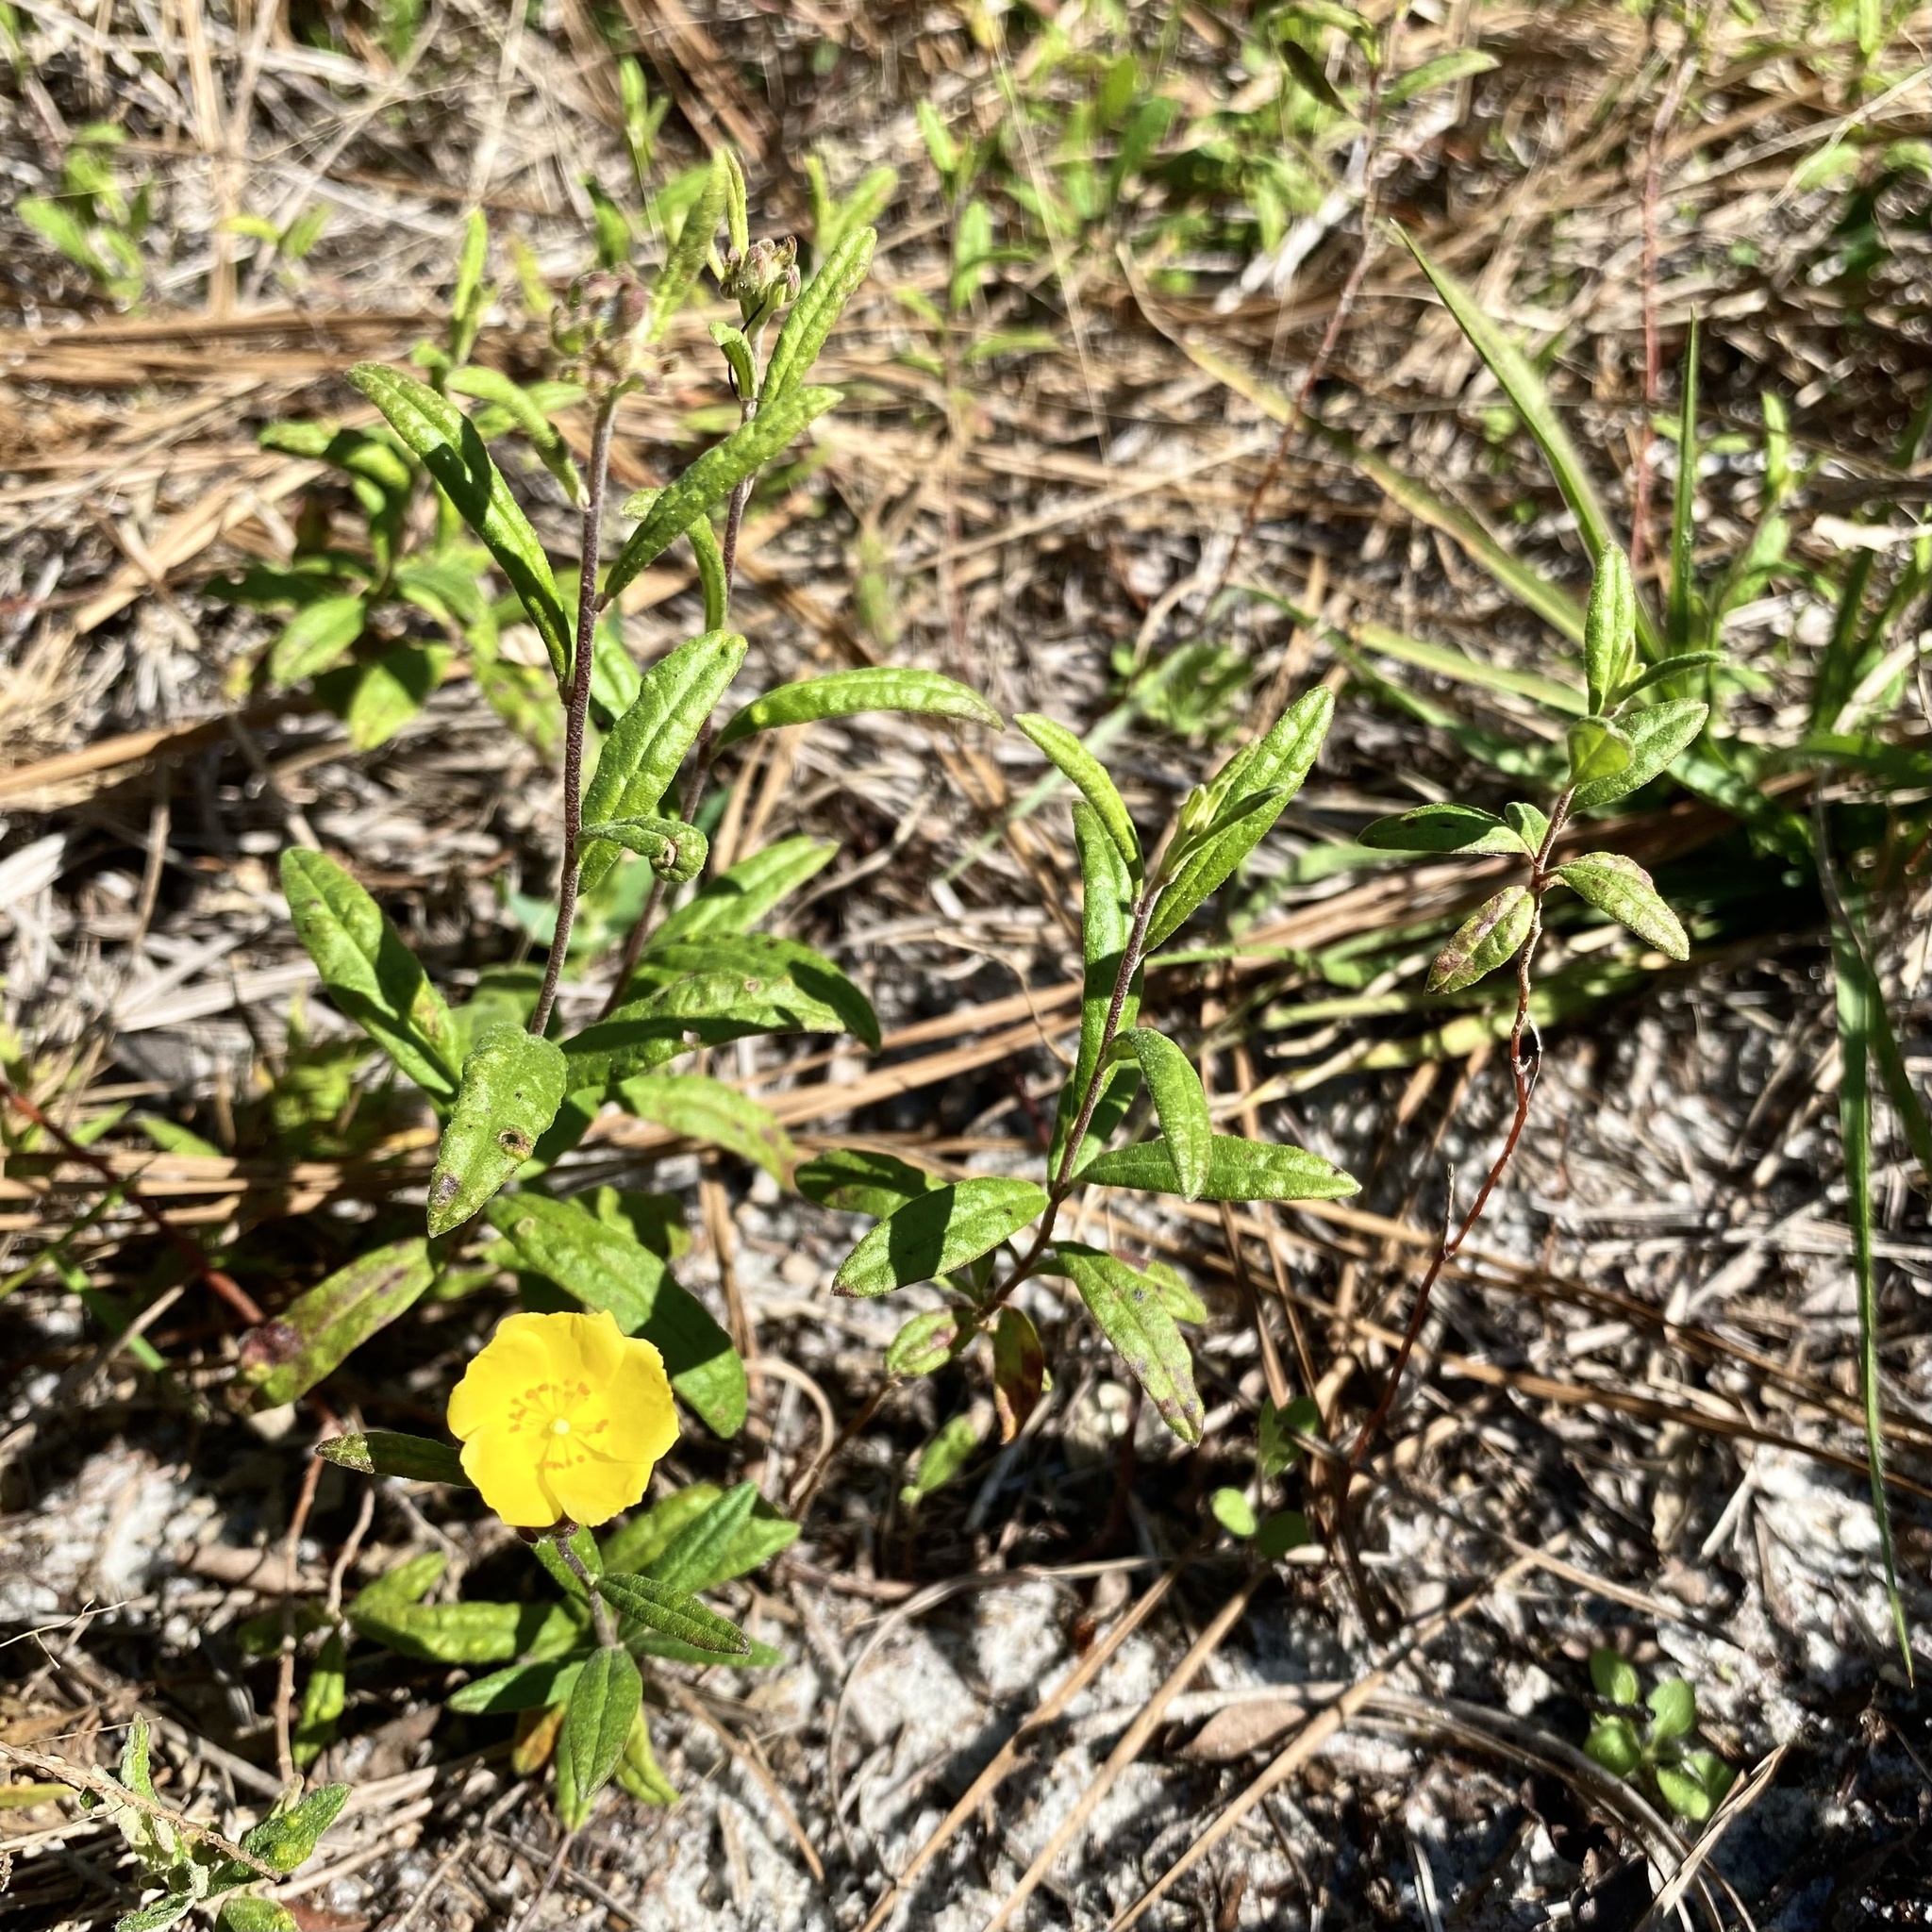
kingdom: Plantae
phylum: Tracheophyta
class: Magnoliopsida
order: Malvales
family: Cistaceae
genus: Crocanthemum
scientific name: Crocanthemum corymbosum
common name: Pinebarren sun-rose
